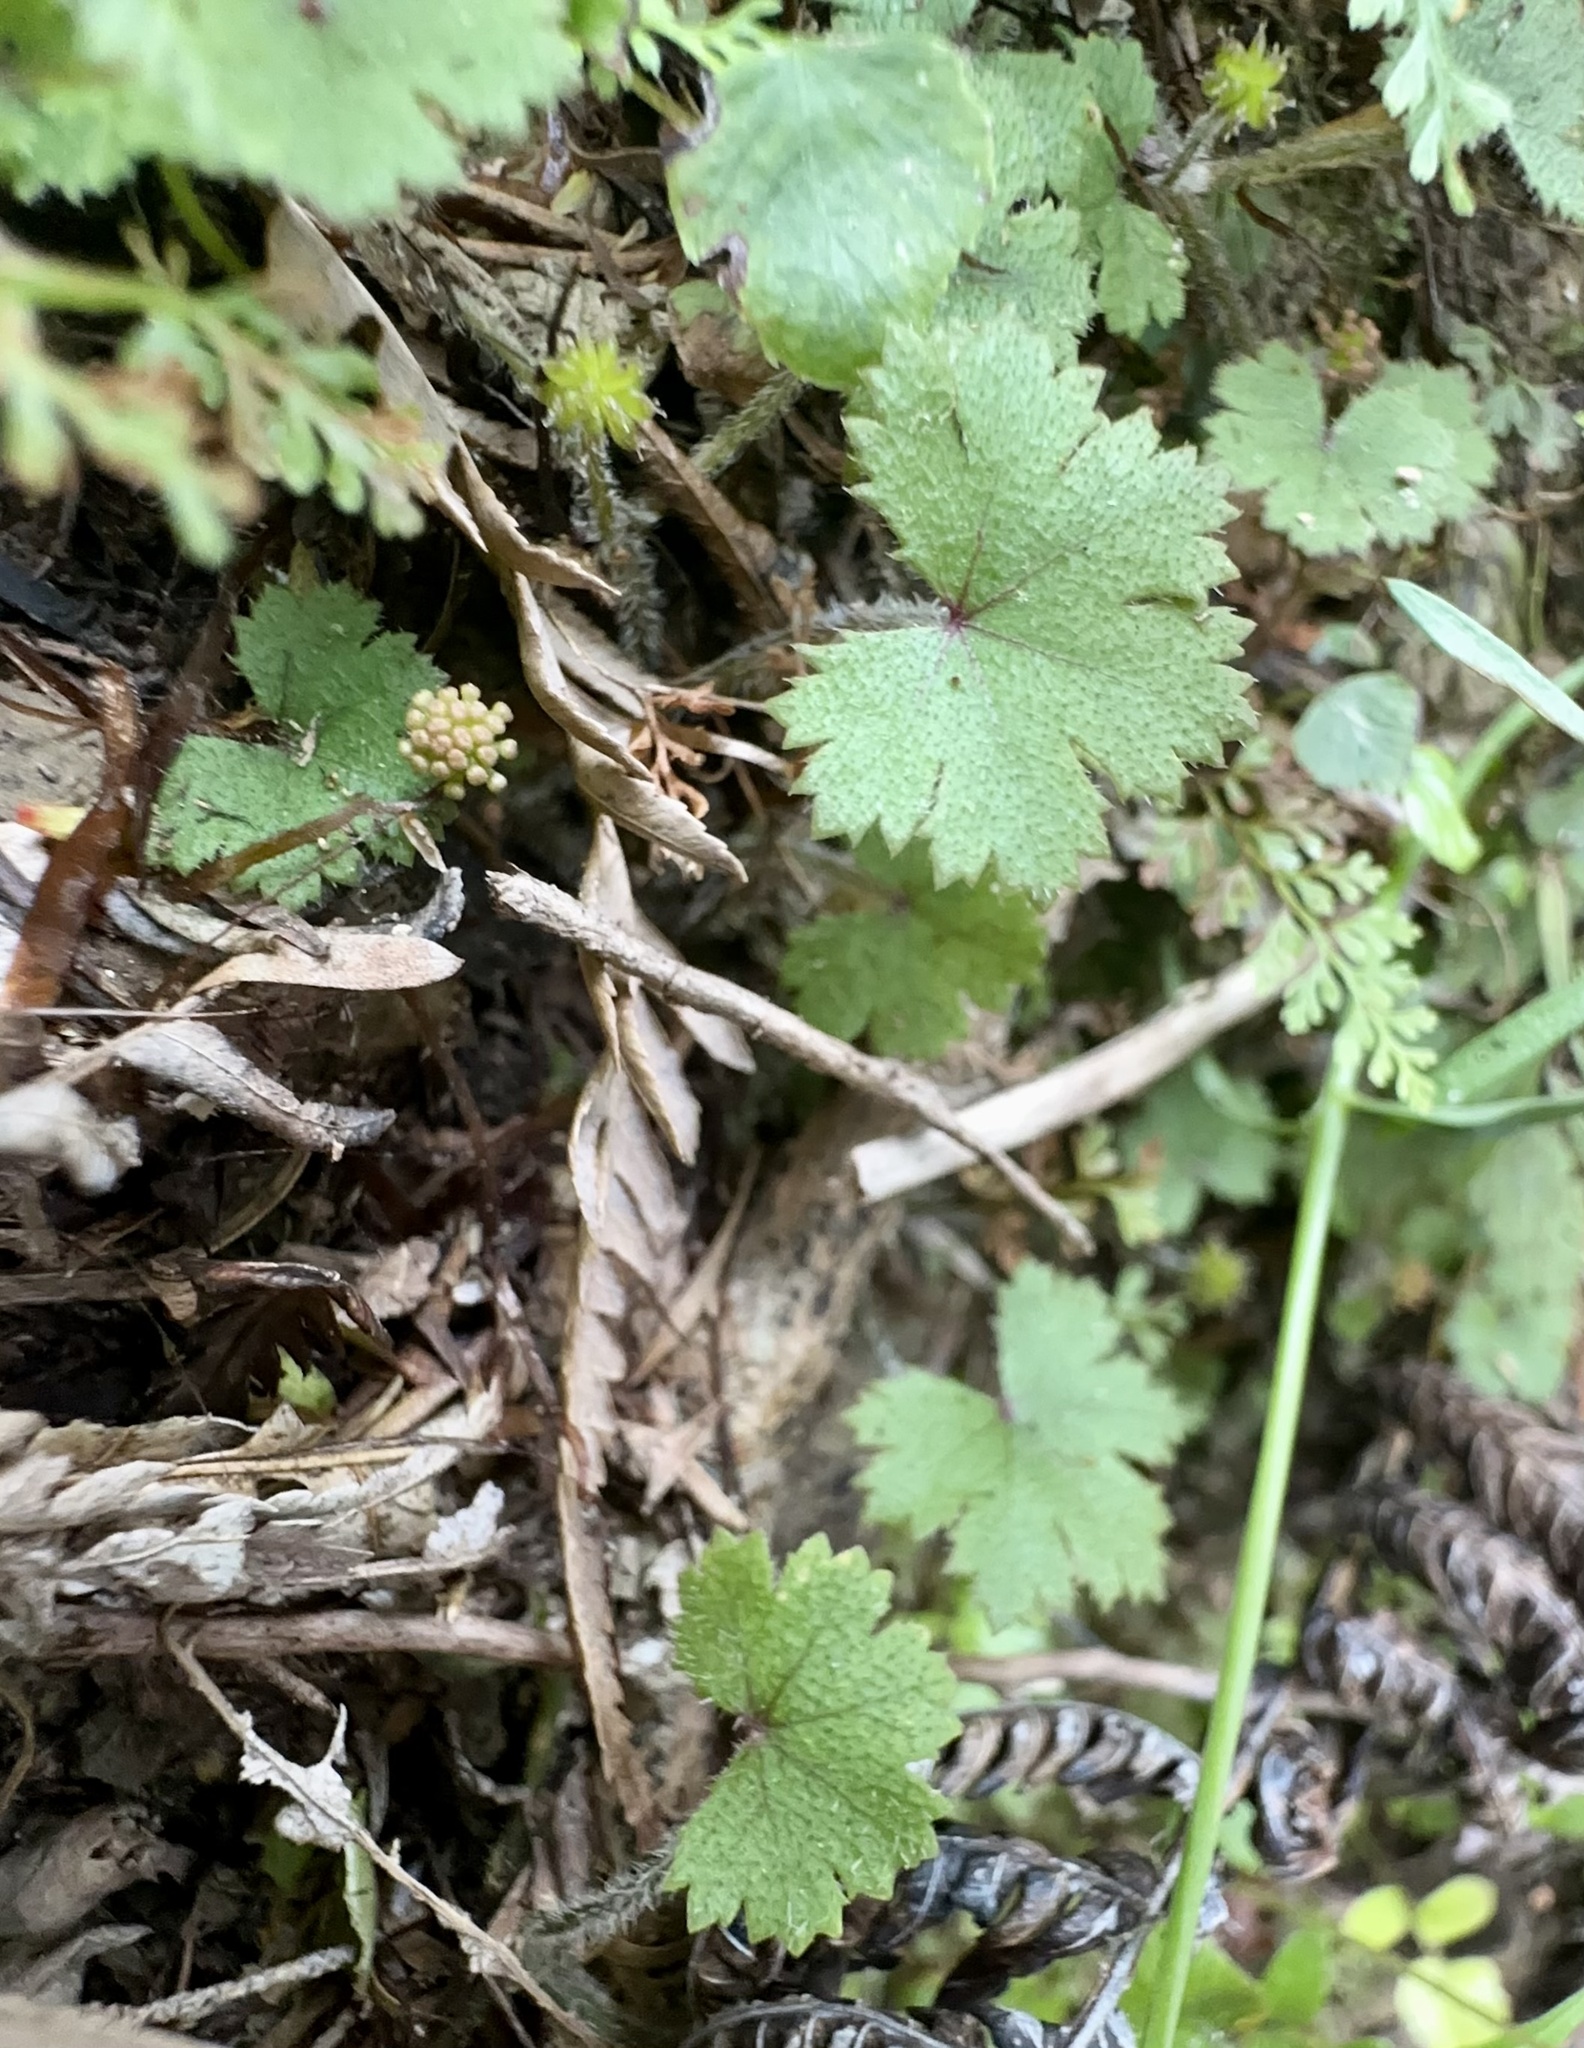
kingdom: Plantae
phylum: Tracheophyta
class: Magnoliopsida
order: Apiales
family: Araliaceae
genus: Hydrocotyle
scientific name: Hydrocotyle moschata
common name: Hairy pennywort
